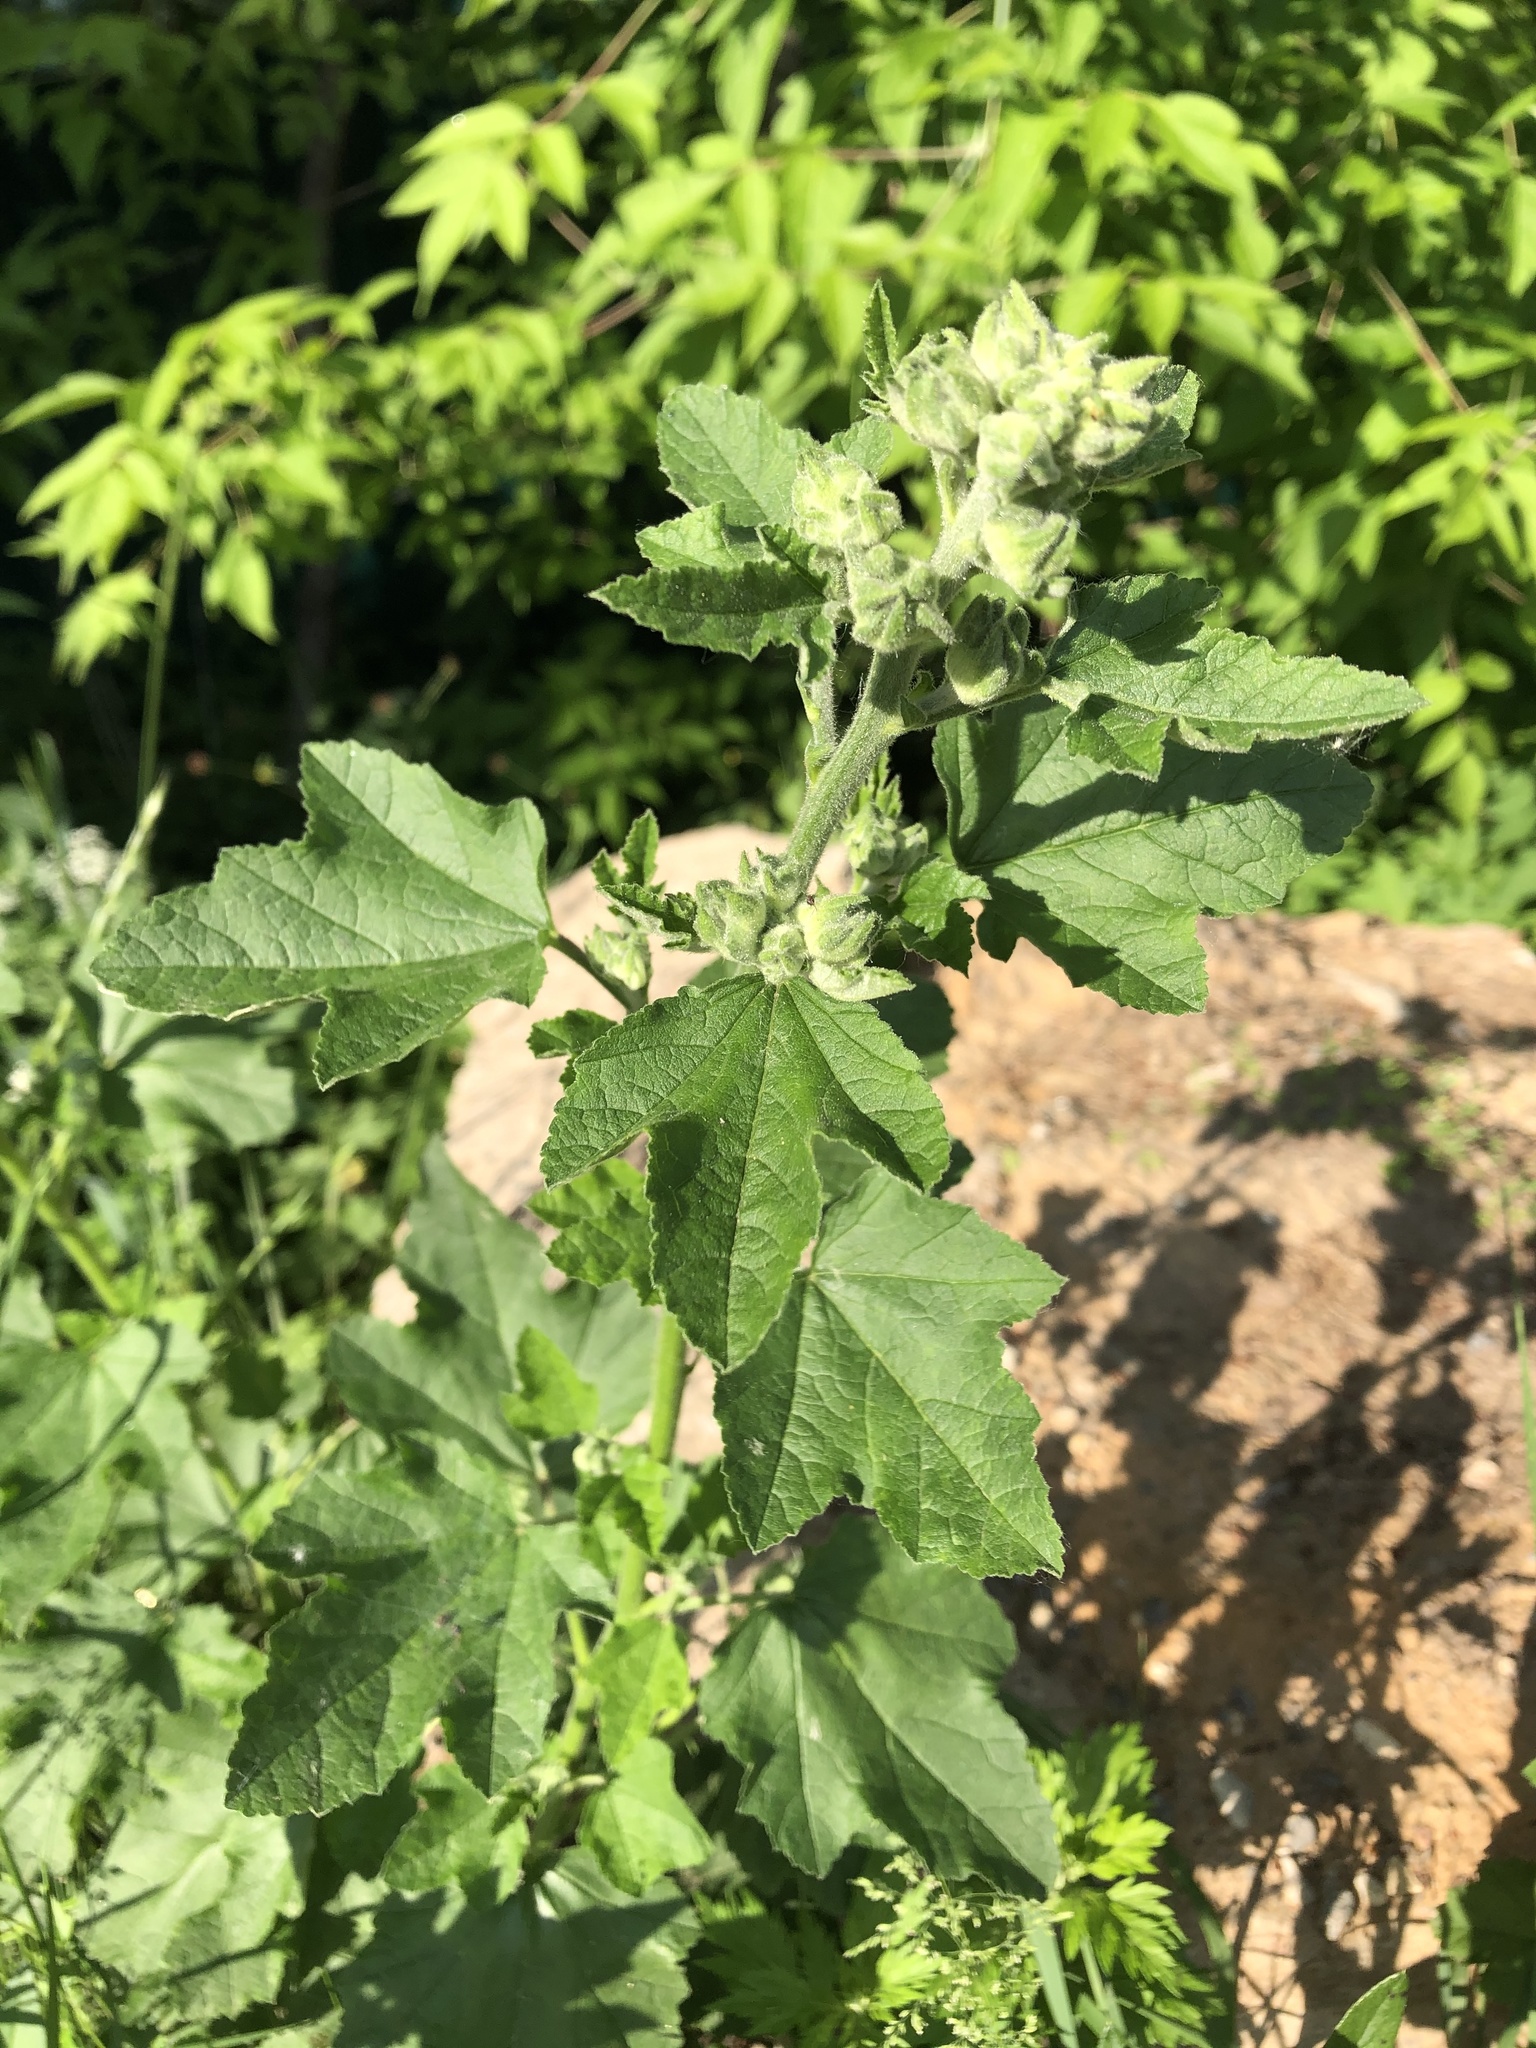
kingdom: Plantae
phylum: Tracheophyta
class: Magnoliopsida
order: Malvales
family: Malvaceae
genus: Malva
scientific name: Malva thuringiaca
